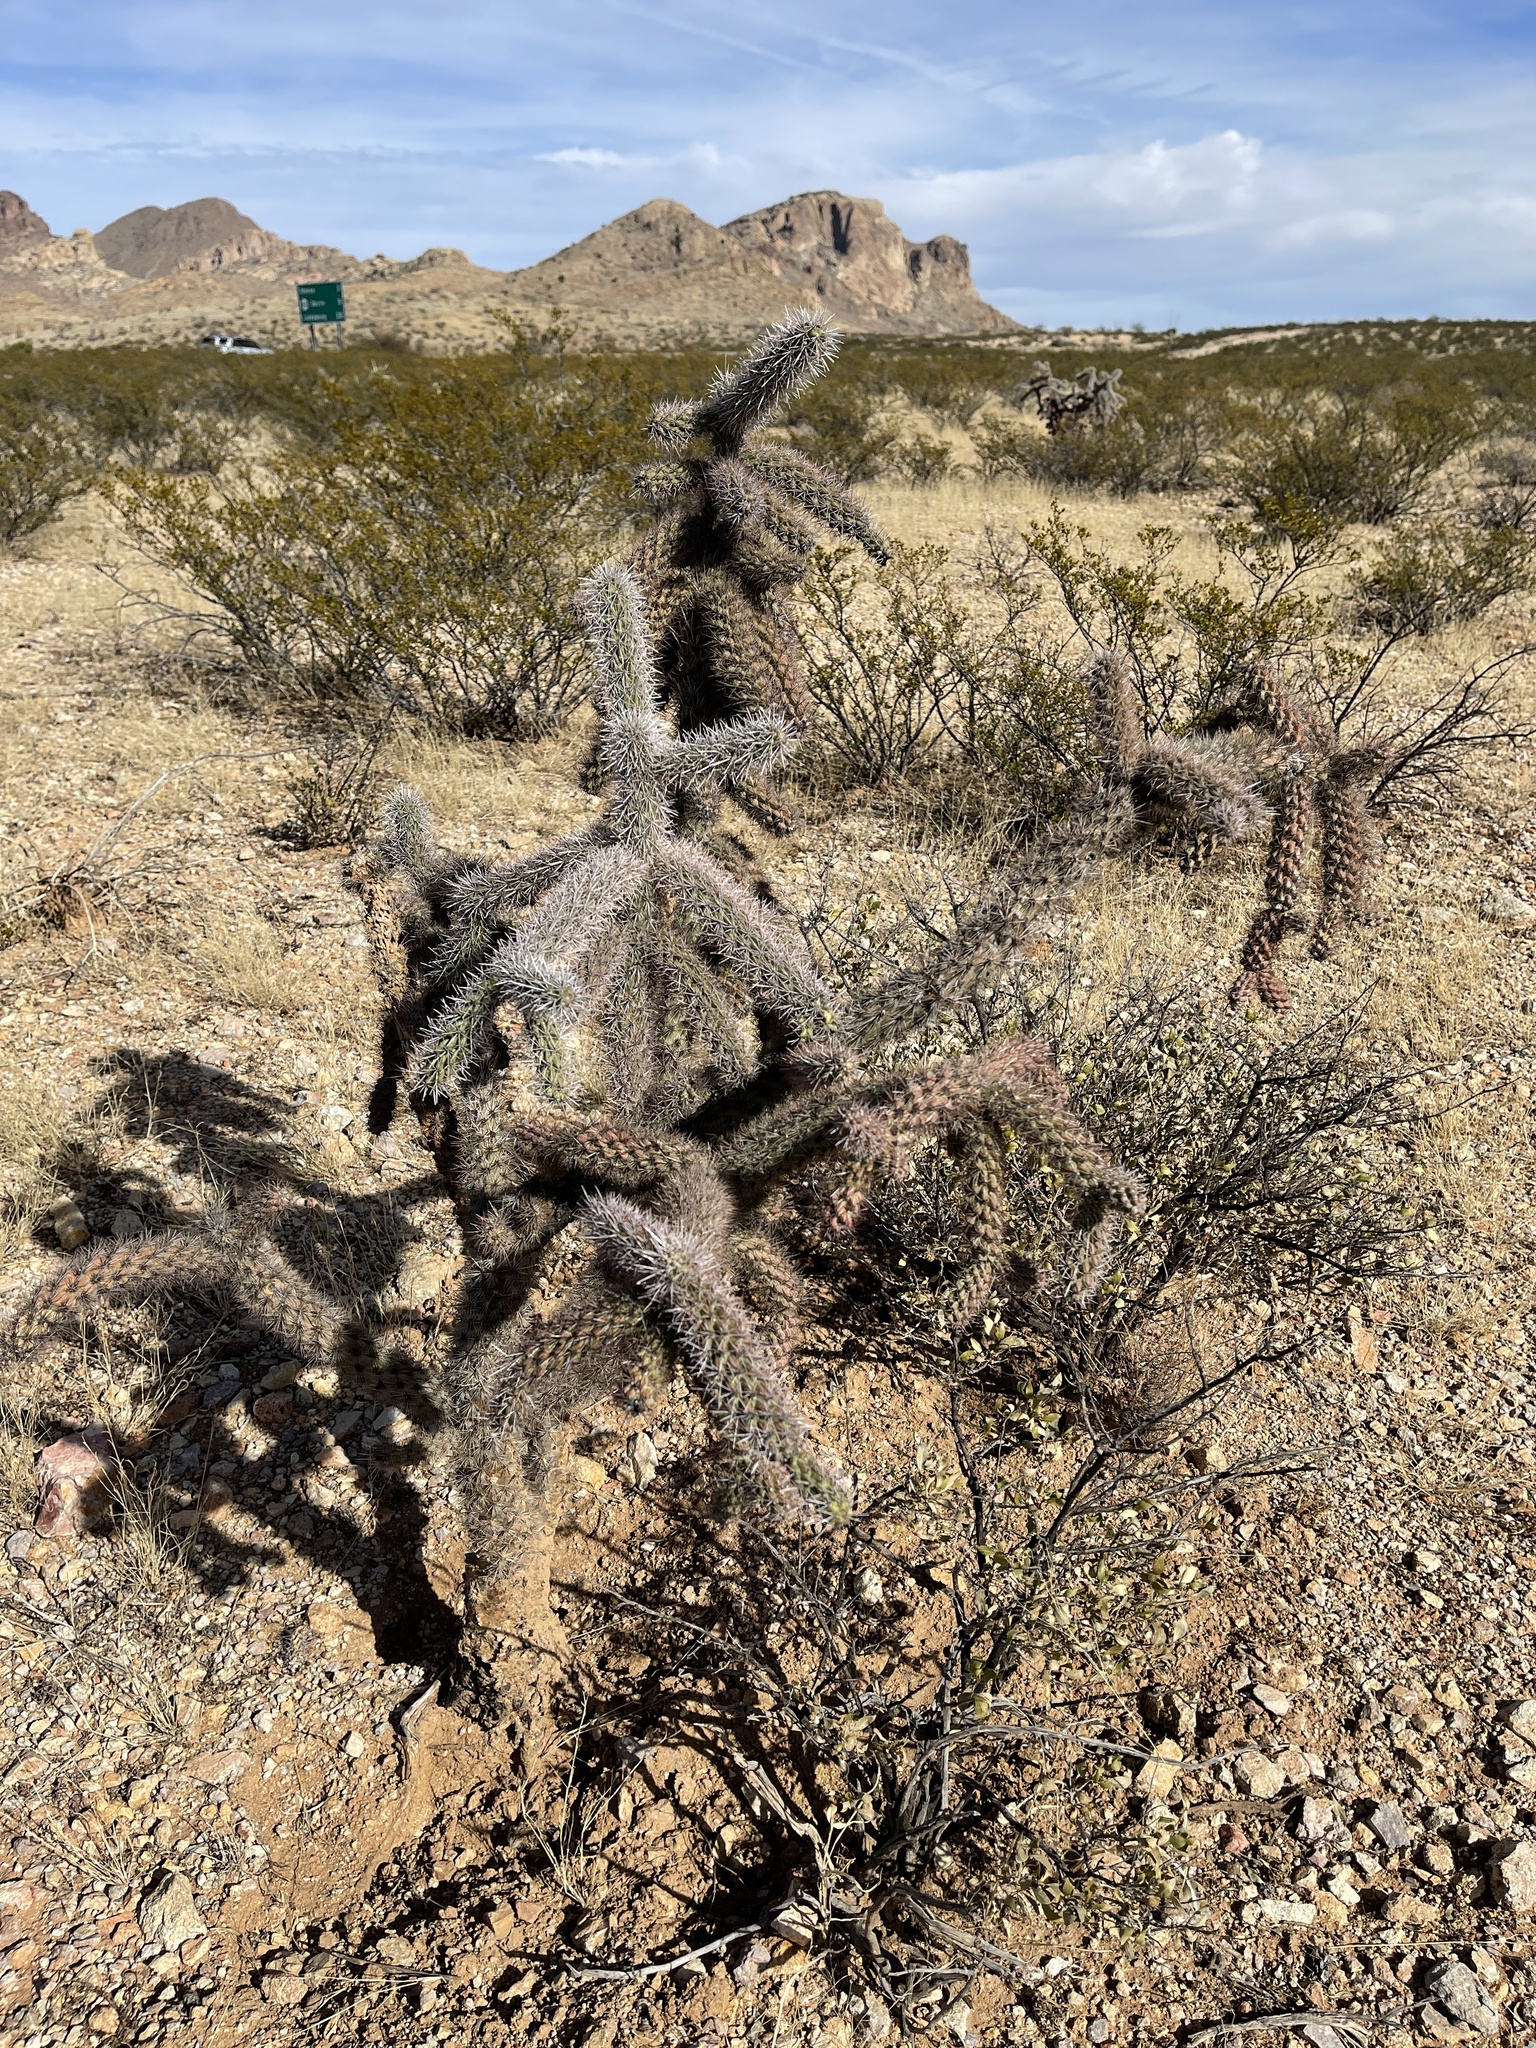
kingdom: Plantae
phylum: Tracheophyta
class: Magnoliopsida
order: Caryophyllales
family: Cactaceae
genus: Cylindropuntia
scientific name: Cylindropuntia imbricata
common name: Candelabrum cactus
